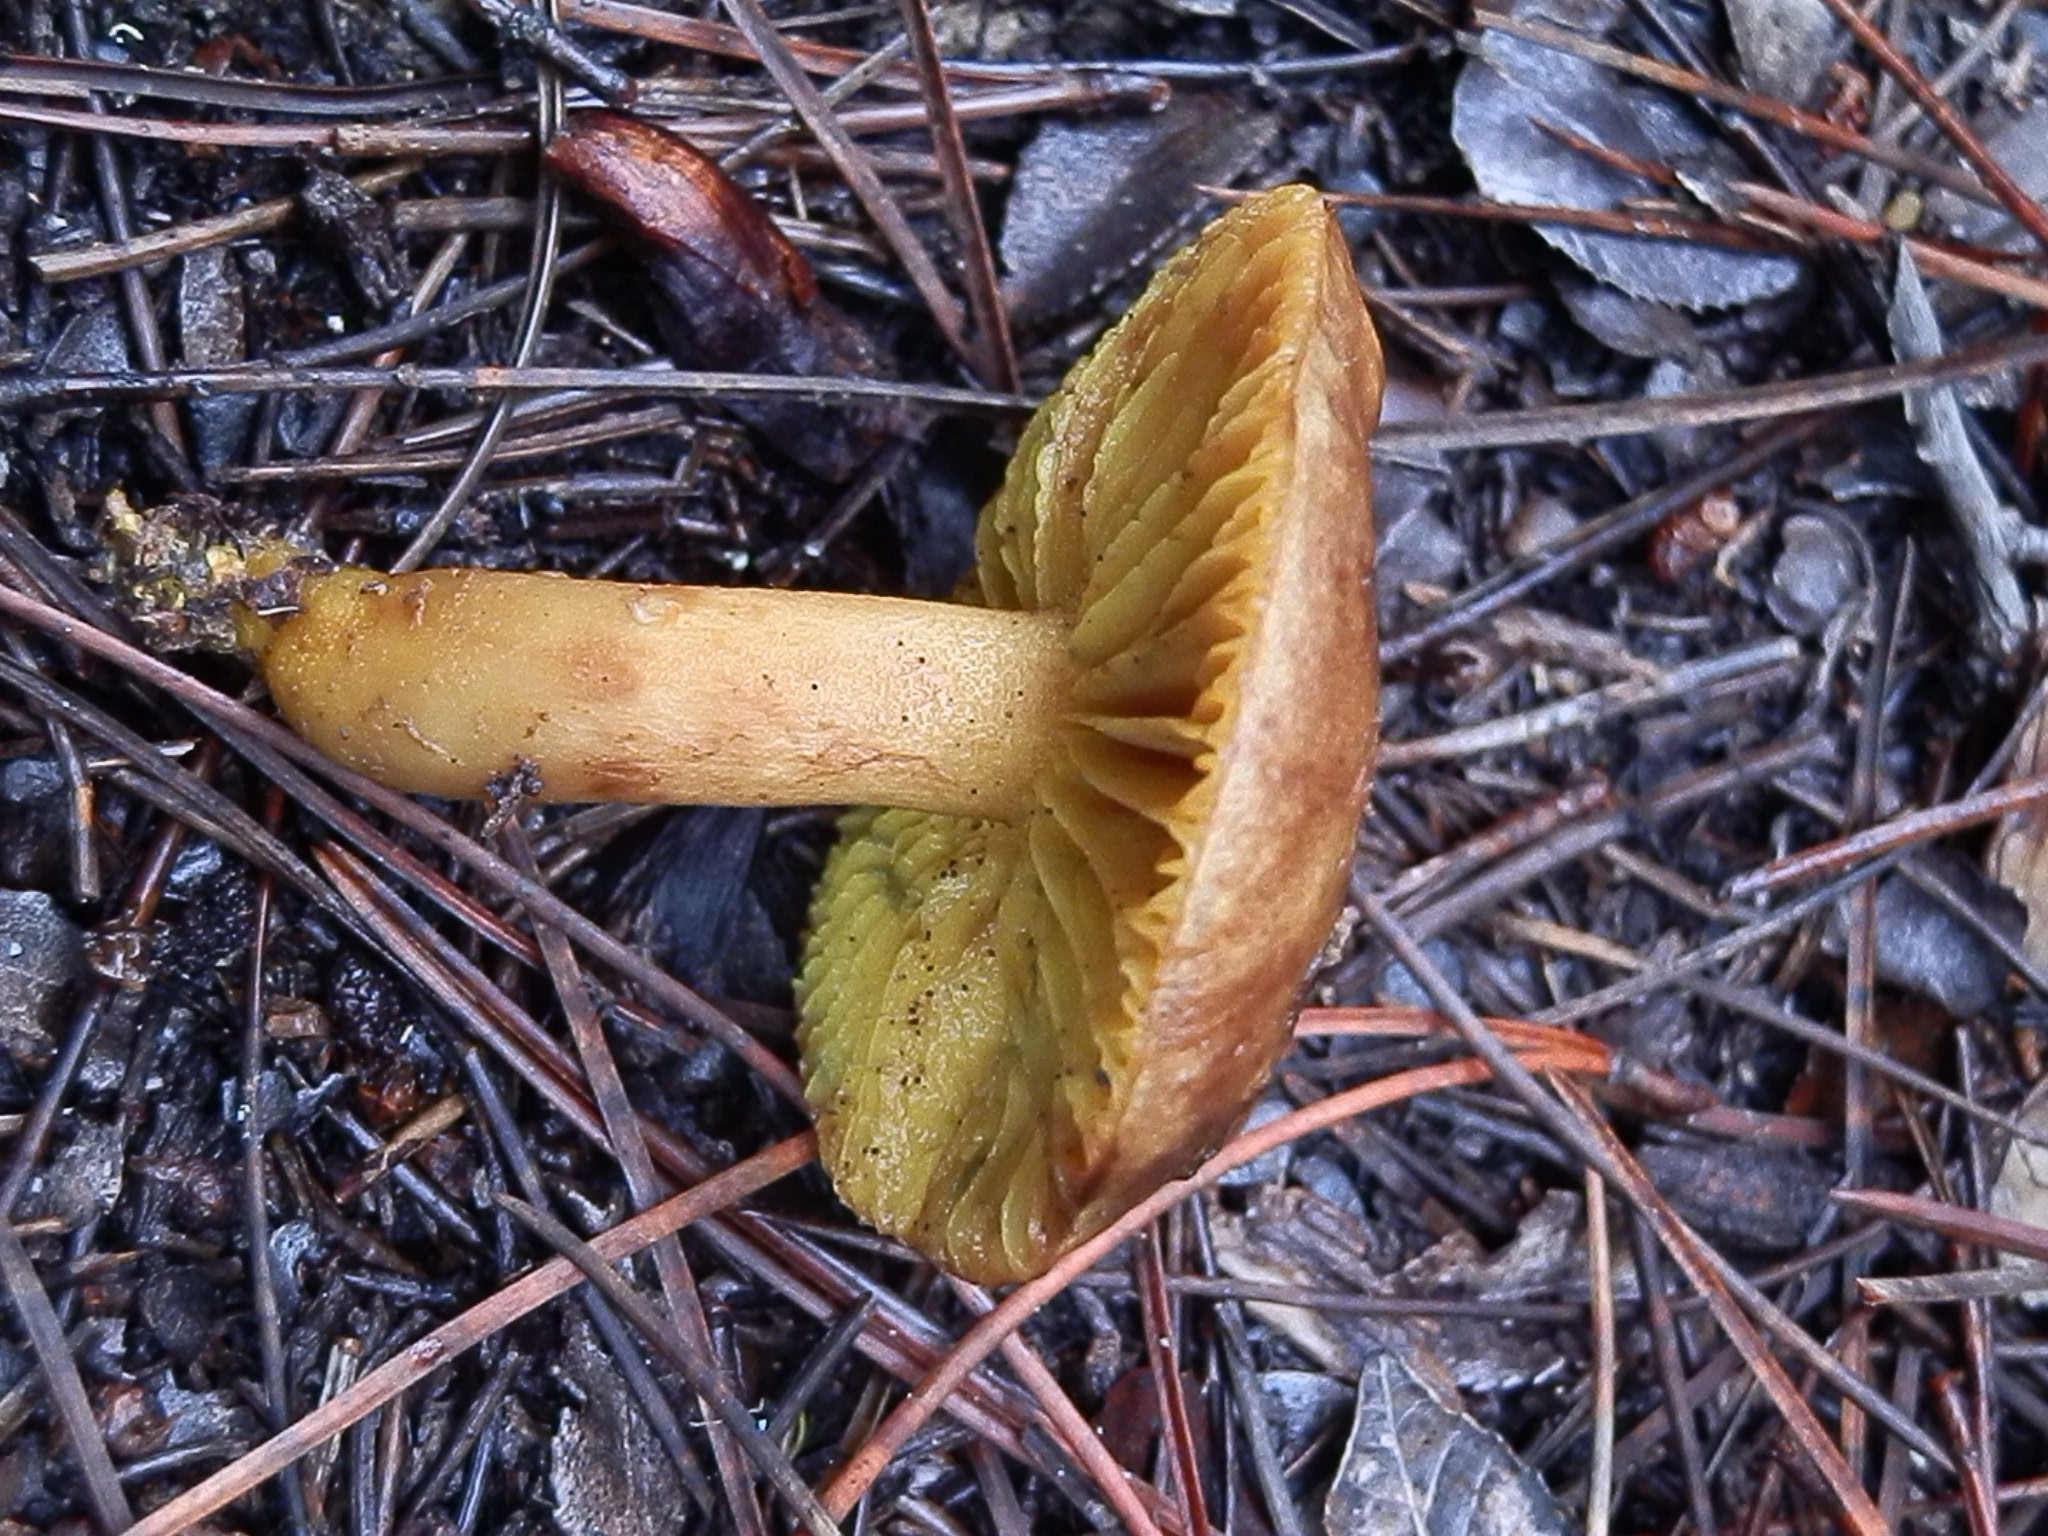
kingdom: Fungi
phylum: Basidiomycota
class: Agaricomycetes
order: Boletales
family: Boletaceae
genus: Phylloporus
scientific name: Phylloporus rhodoxanthus
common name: Golden gilled bolete
